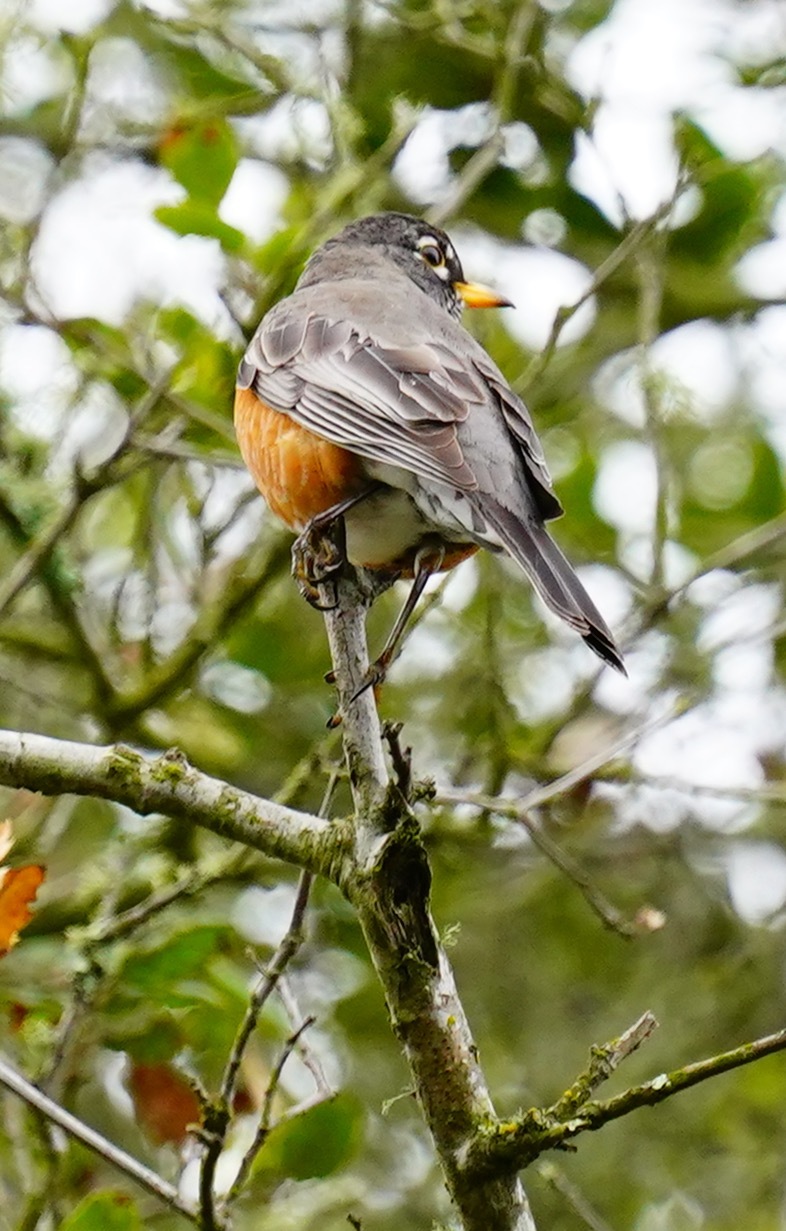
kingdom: Animalia
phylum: Chordata
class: Aves
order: Passeriformes
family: Turdidae
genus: Turdus
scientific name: Turdus migratorius
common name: American robin
